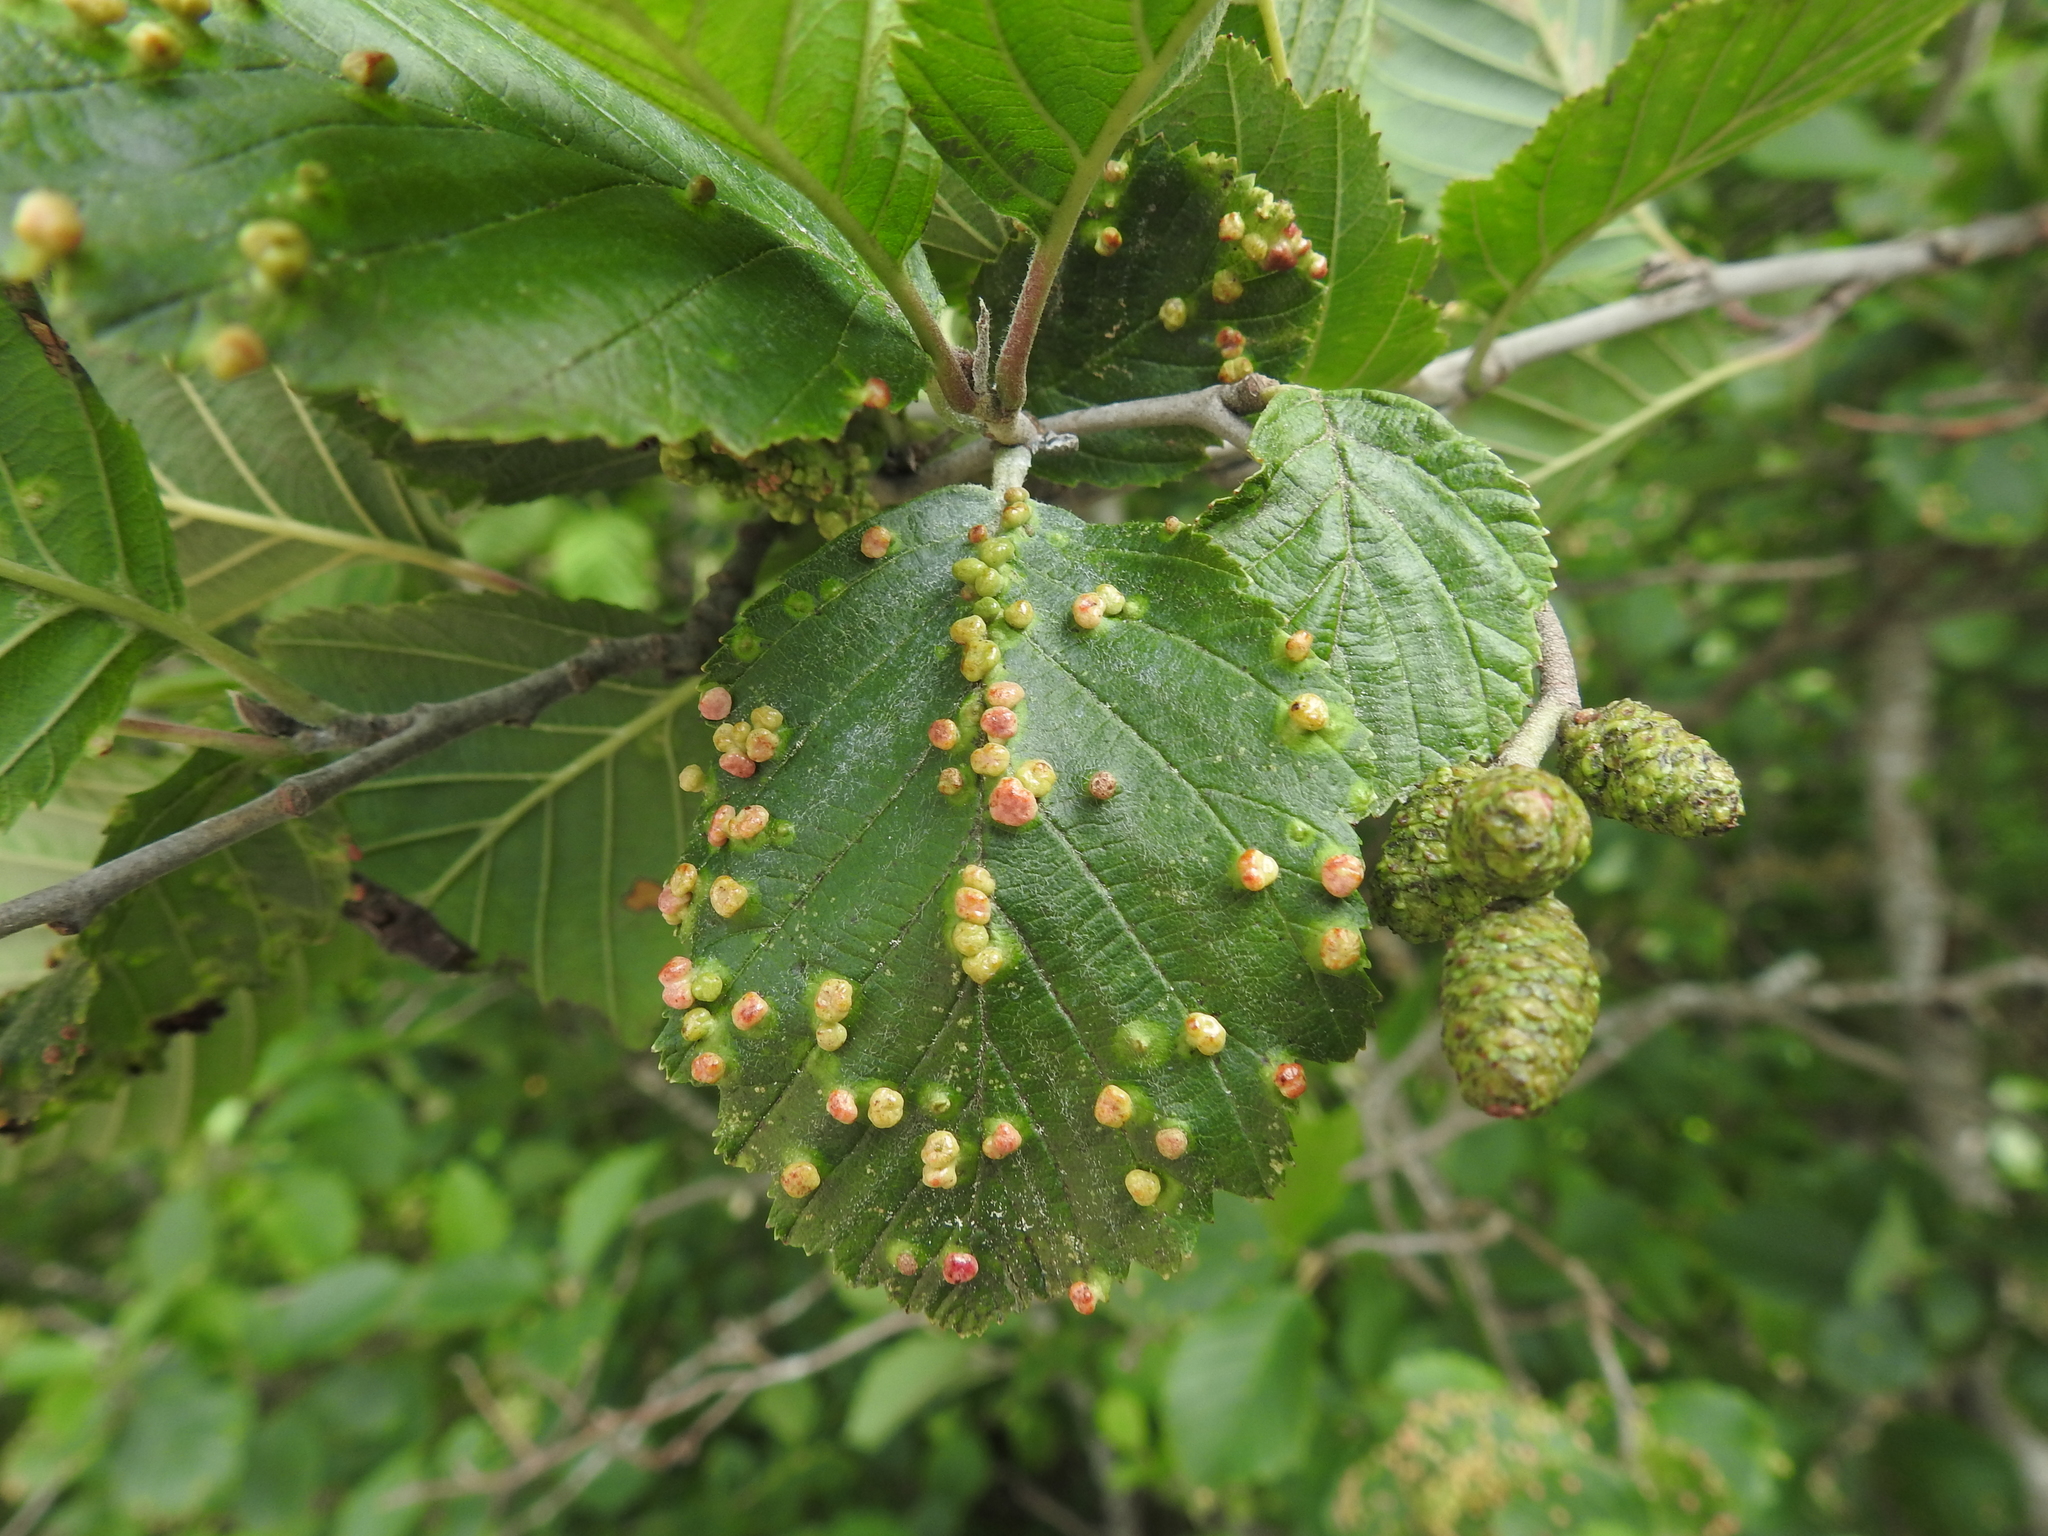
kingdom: Animalia
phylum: Arthropoda
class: Arachnida
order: Trombidiformes
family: Eriophyidae
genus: Eriophyes
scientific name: Eriophyes laevis
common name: Alder leaf gall mite
